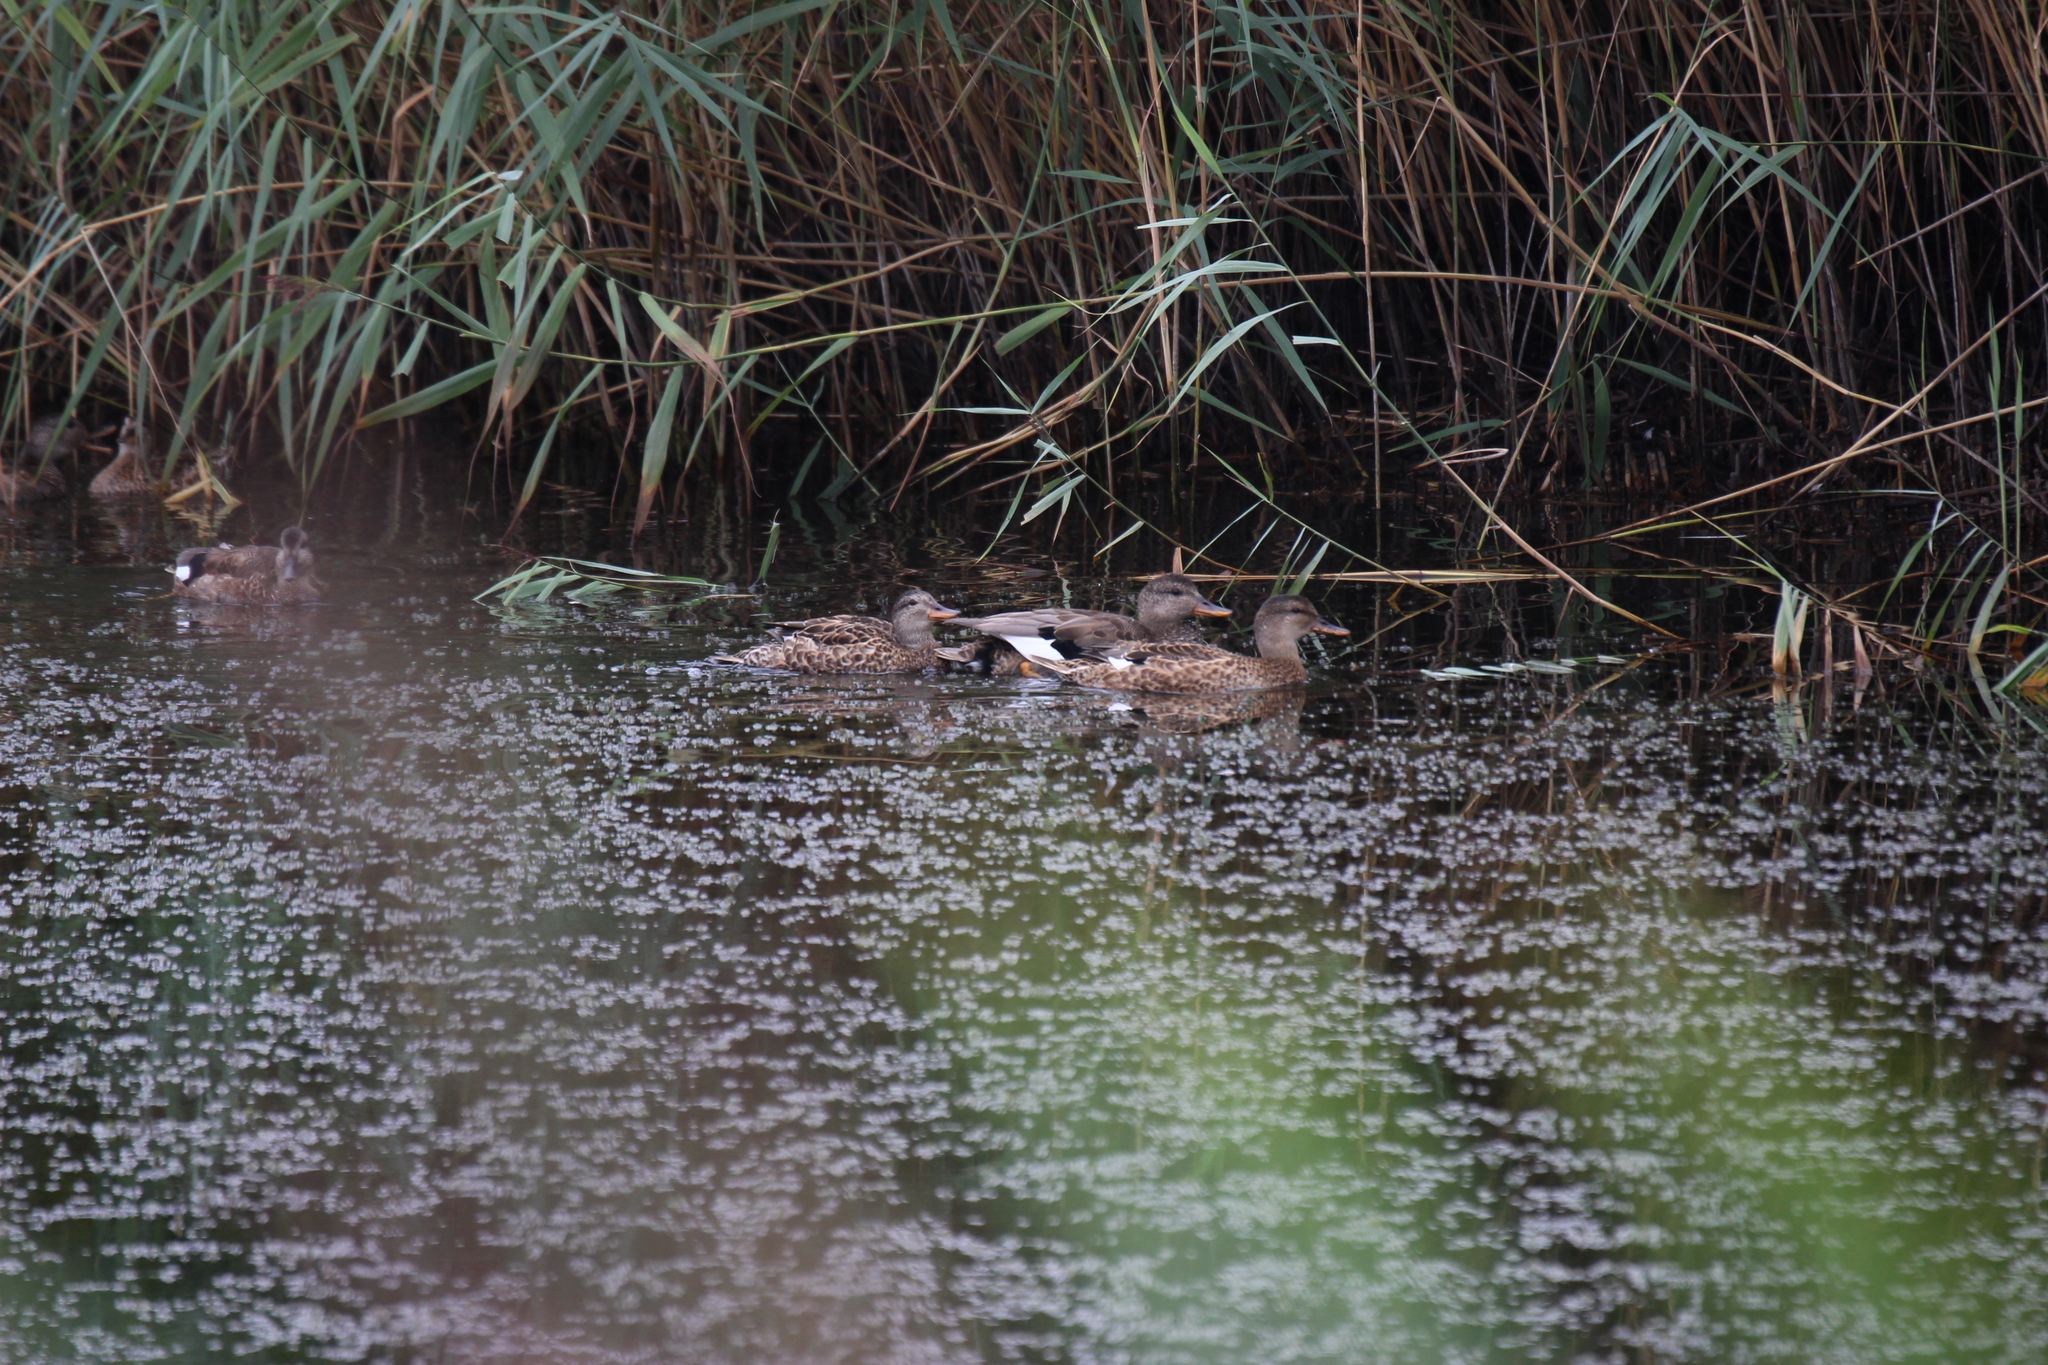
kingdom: Animalia
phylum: Chordata
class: Aves
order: Anseriformes
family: Anatidae
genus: Mareca
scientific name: Mareca strepera
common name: Gadwall
